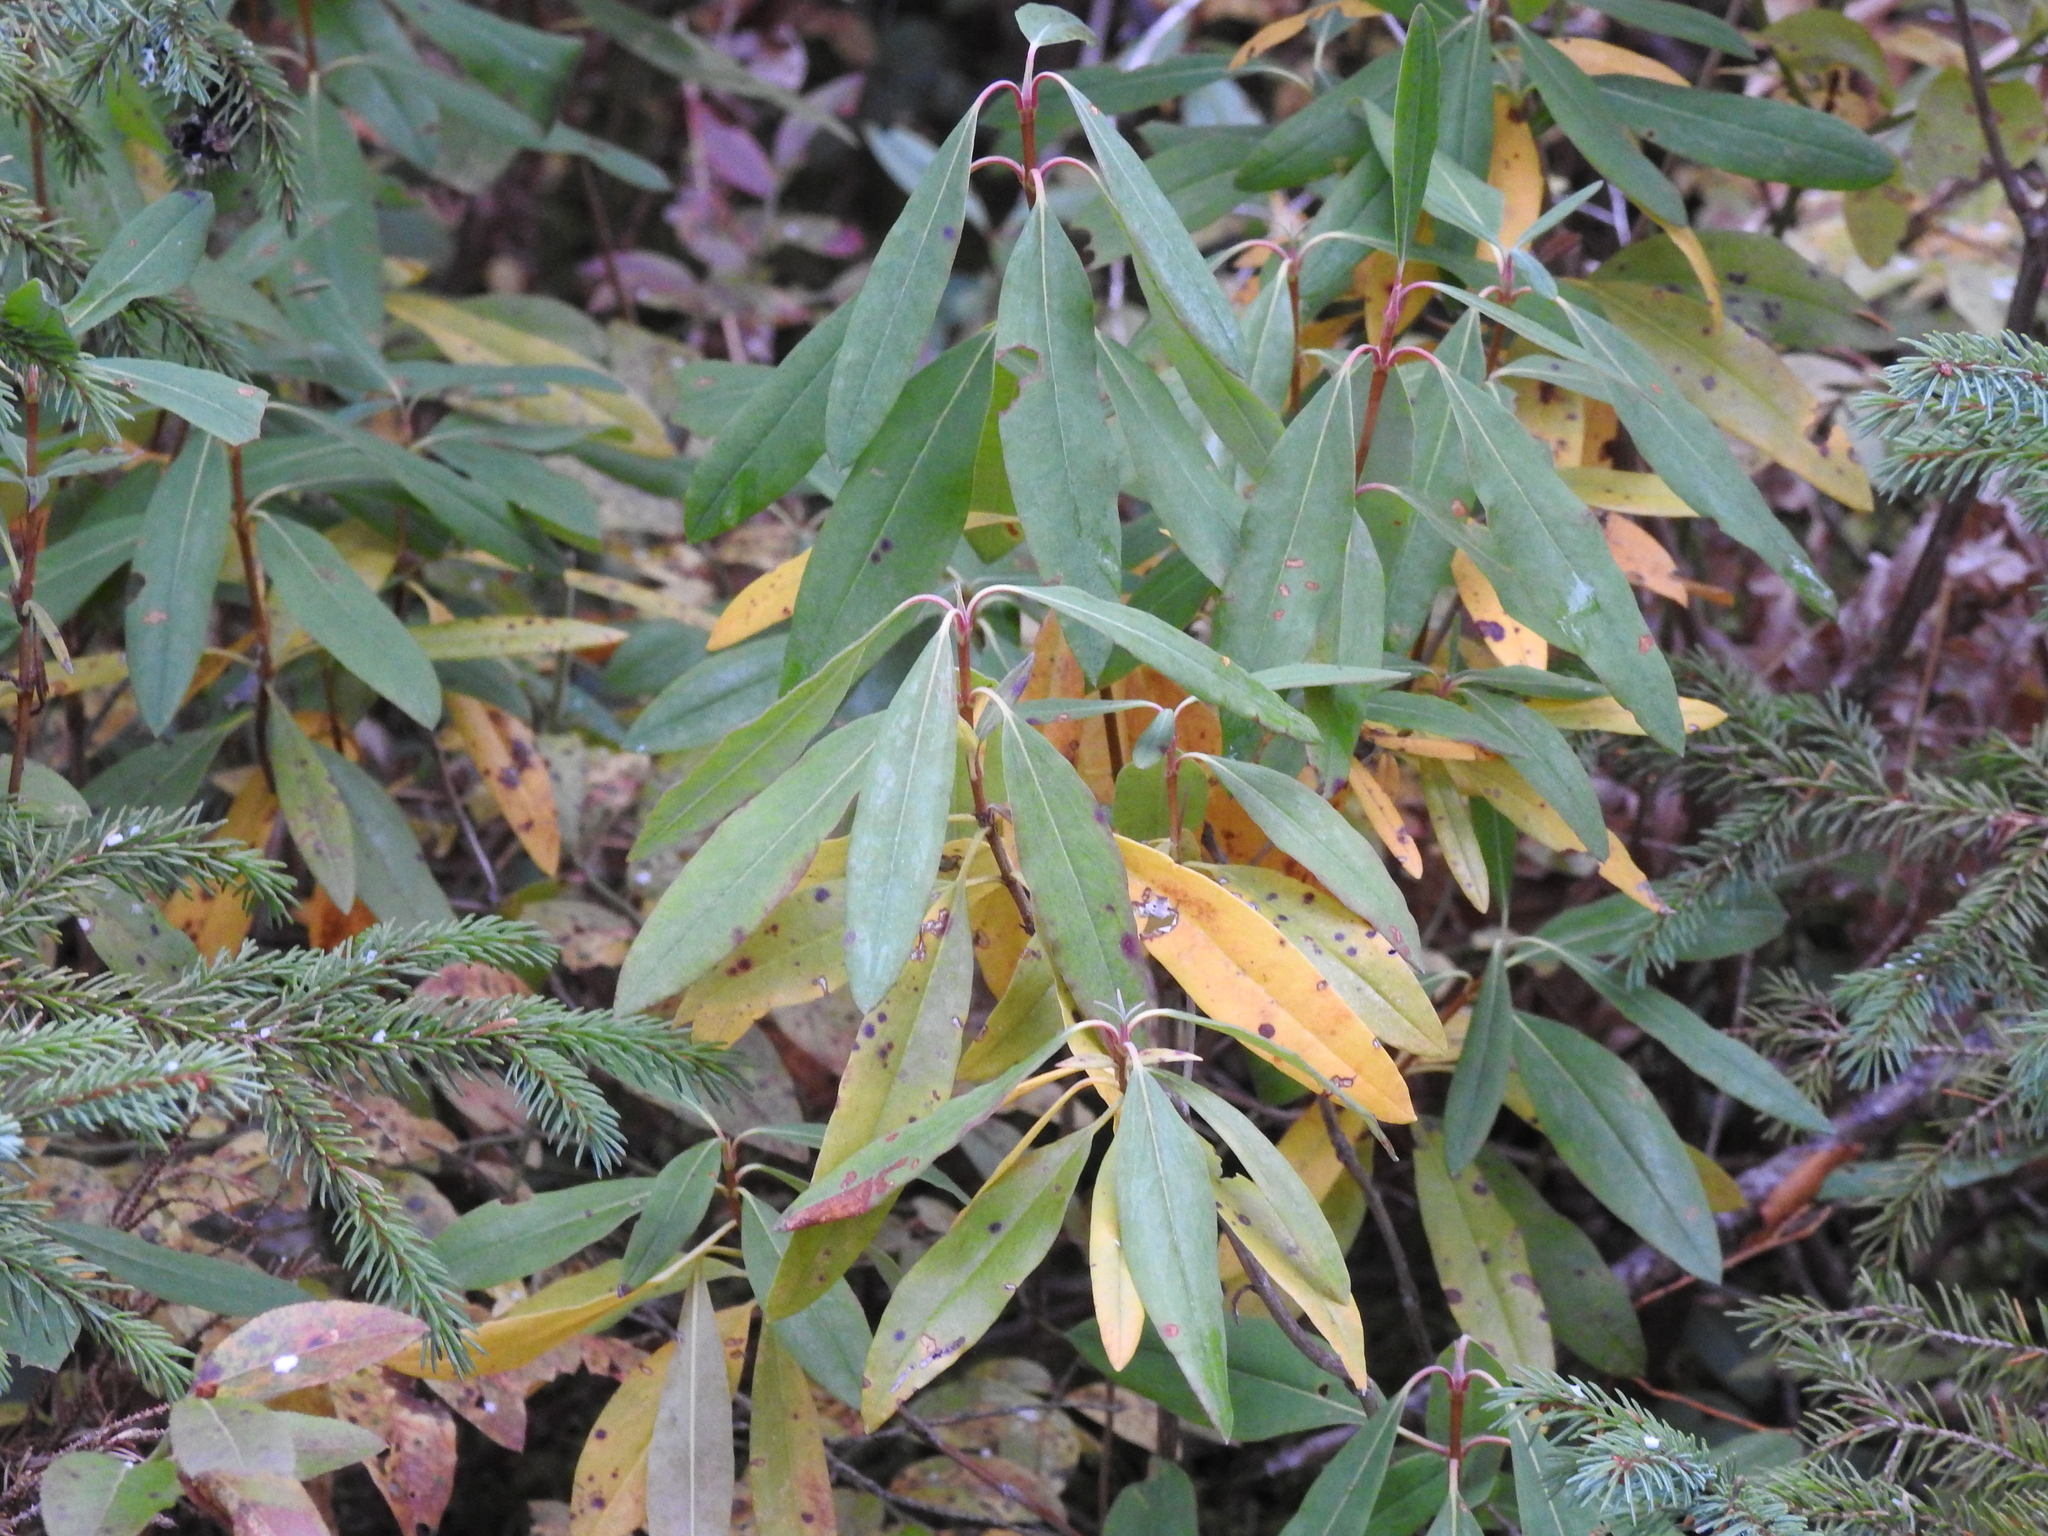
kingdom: Plantae
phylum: Tracheophyta
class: Magnoliopsida
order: Ericales
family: Ericaceae
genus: Kalmia
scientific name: Kalmia angustifolia
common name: Sheep-laurel
